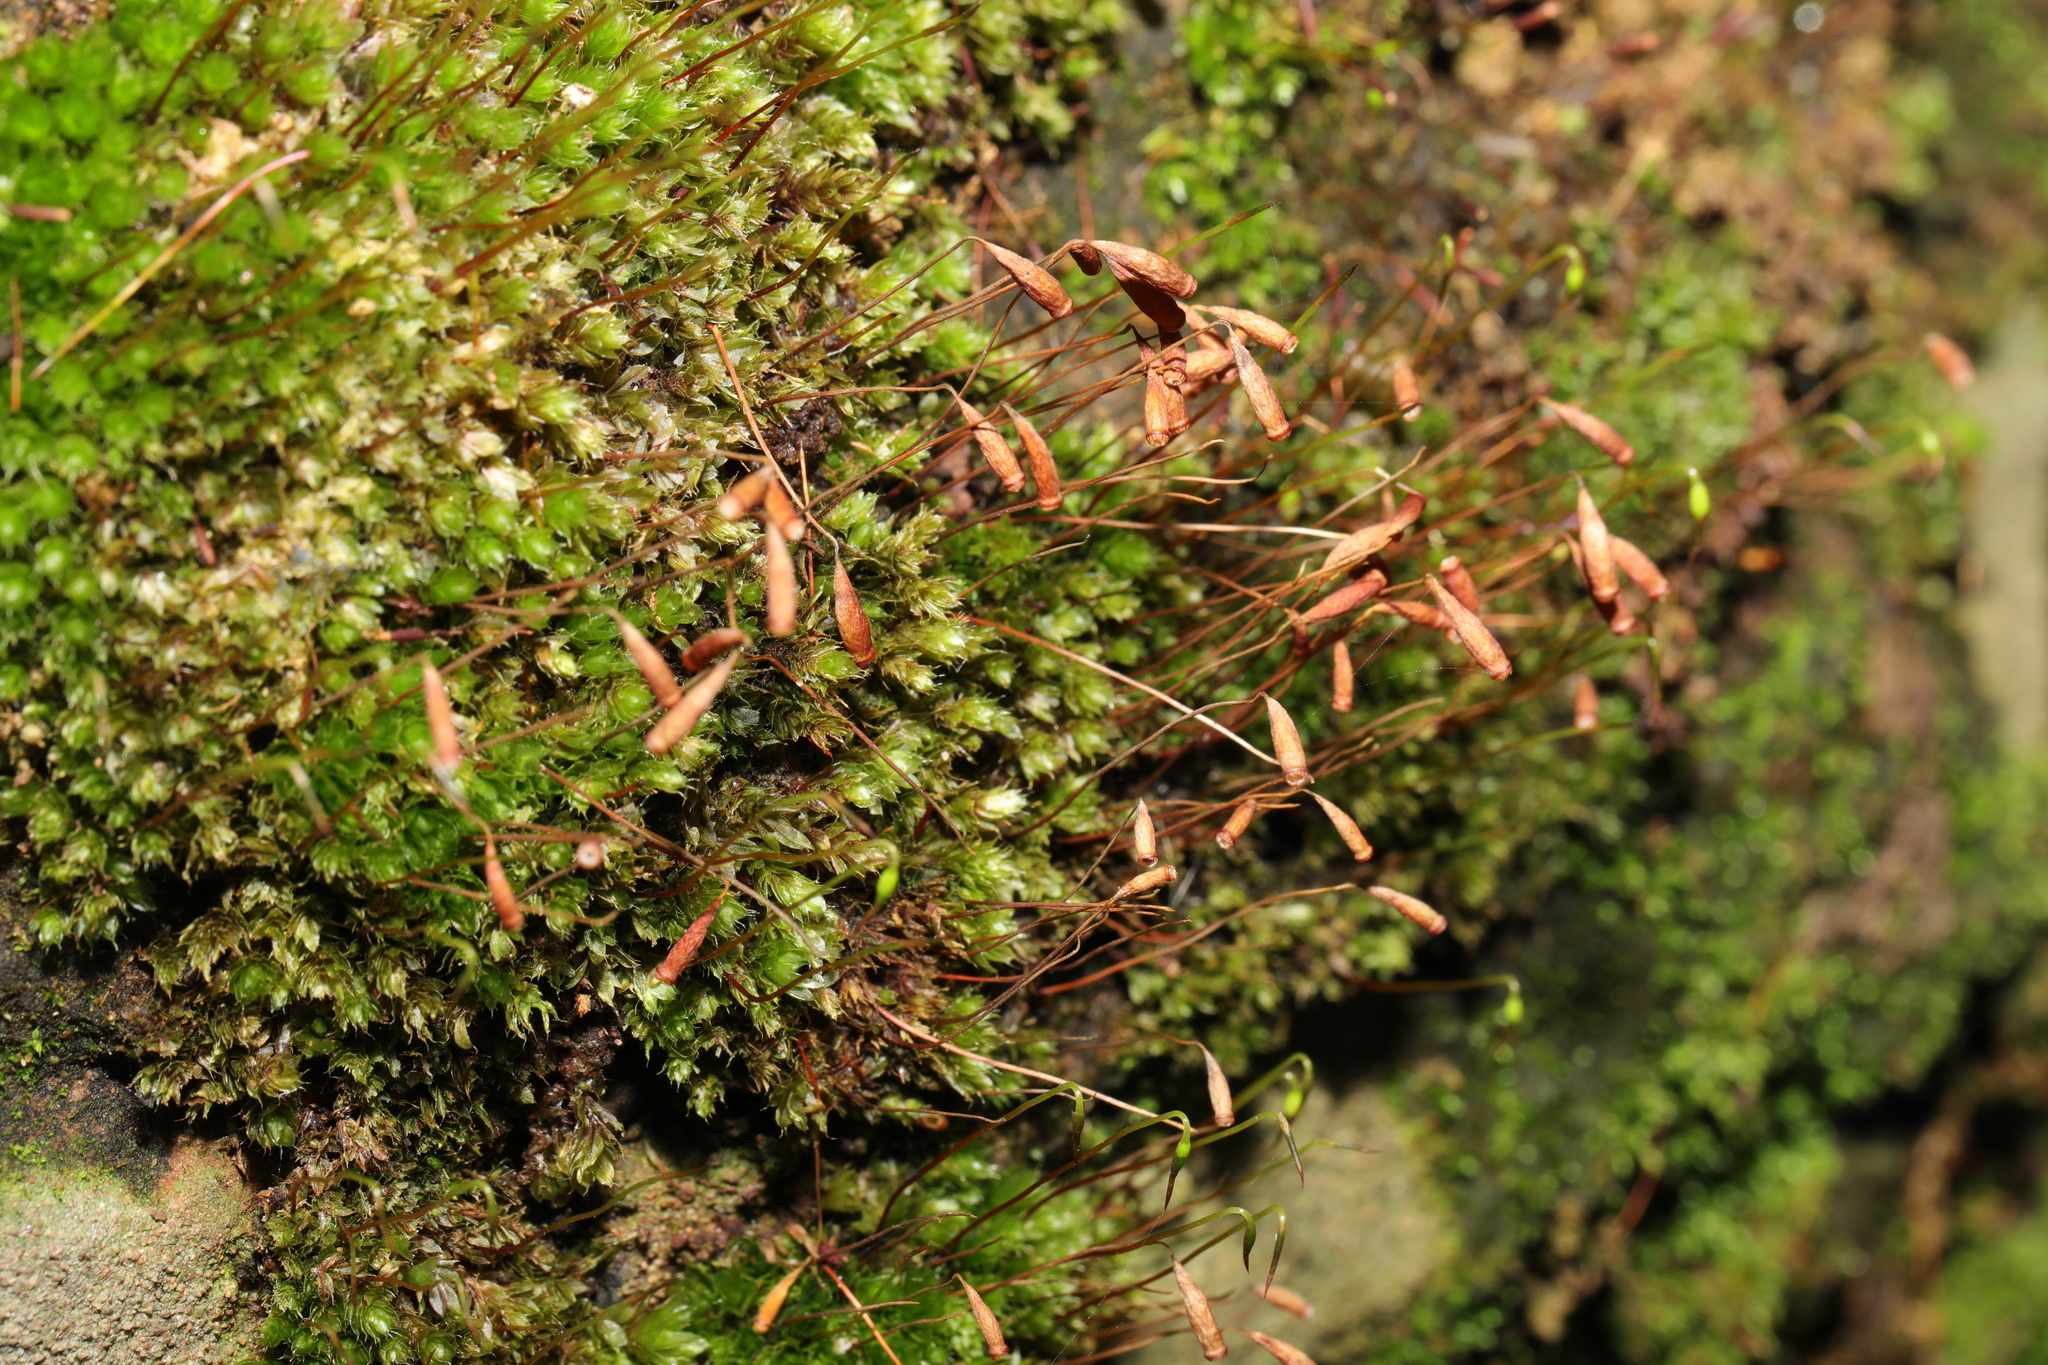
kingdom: Plantae
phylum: Bryophyta
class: Bryopsida
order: Bryales
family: Bryaceae
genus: Rosulabryum
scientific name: Rosulabryum capillare
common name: Capillary thread-moss
